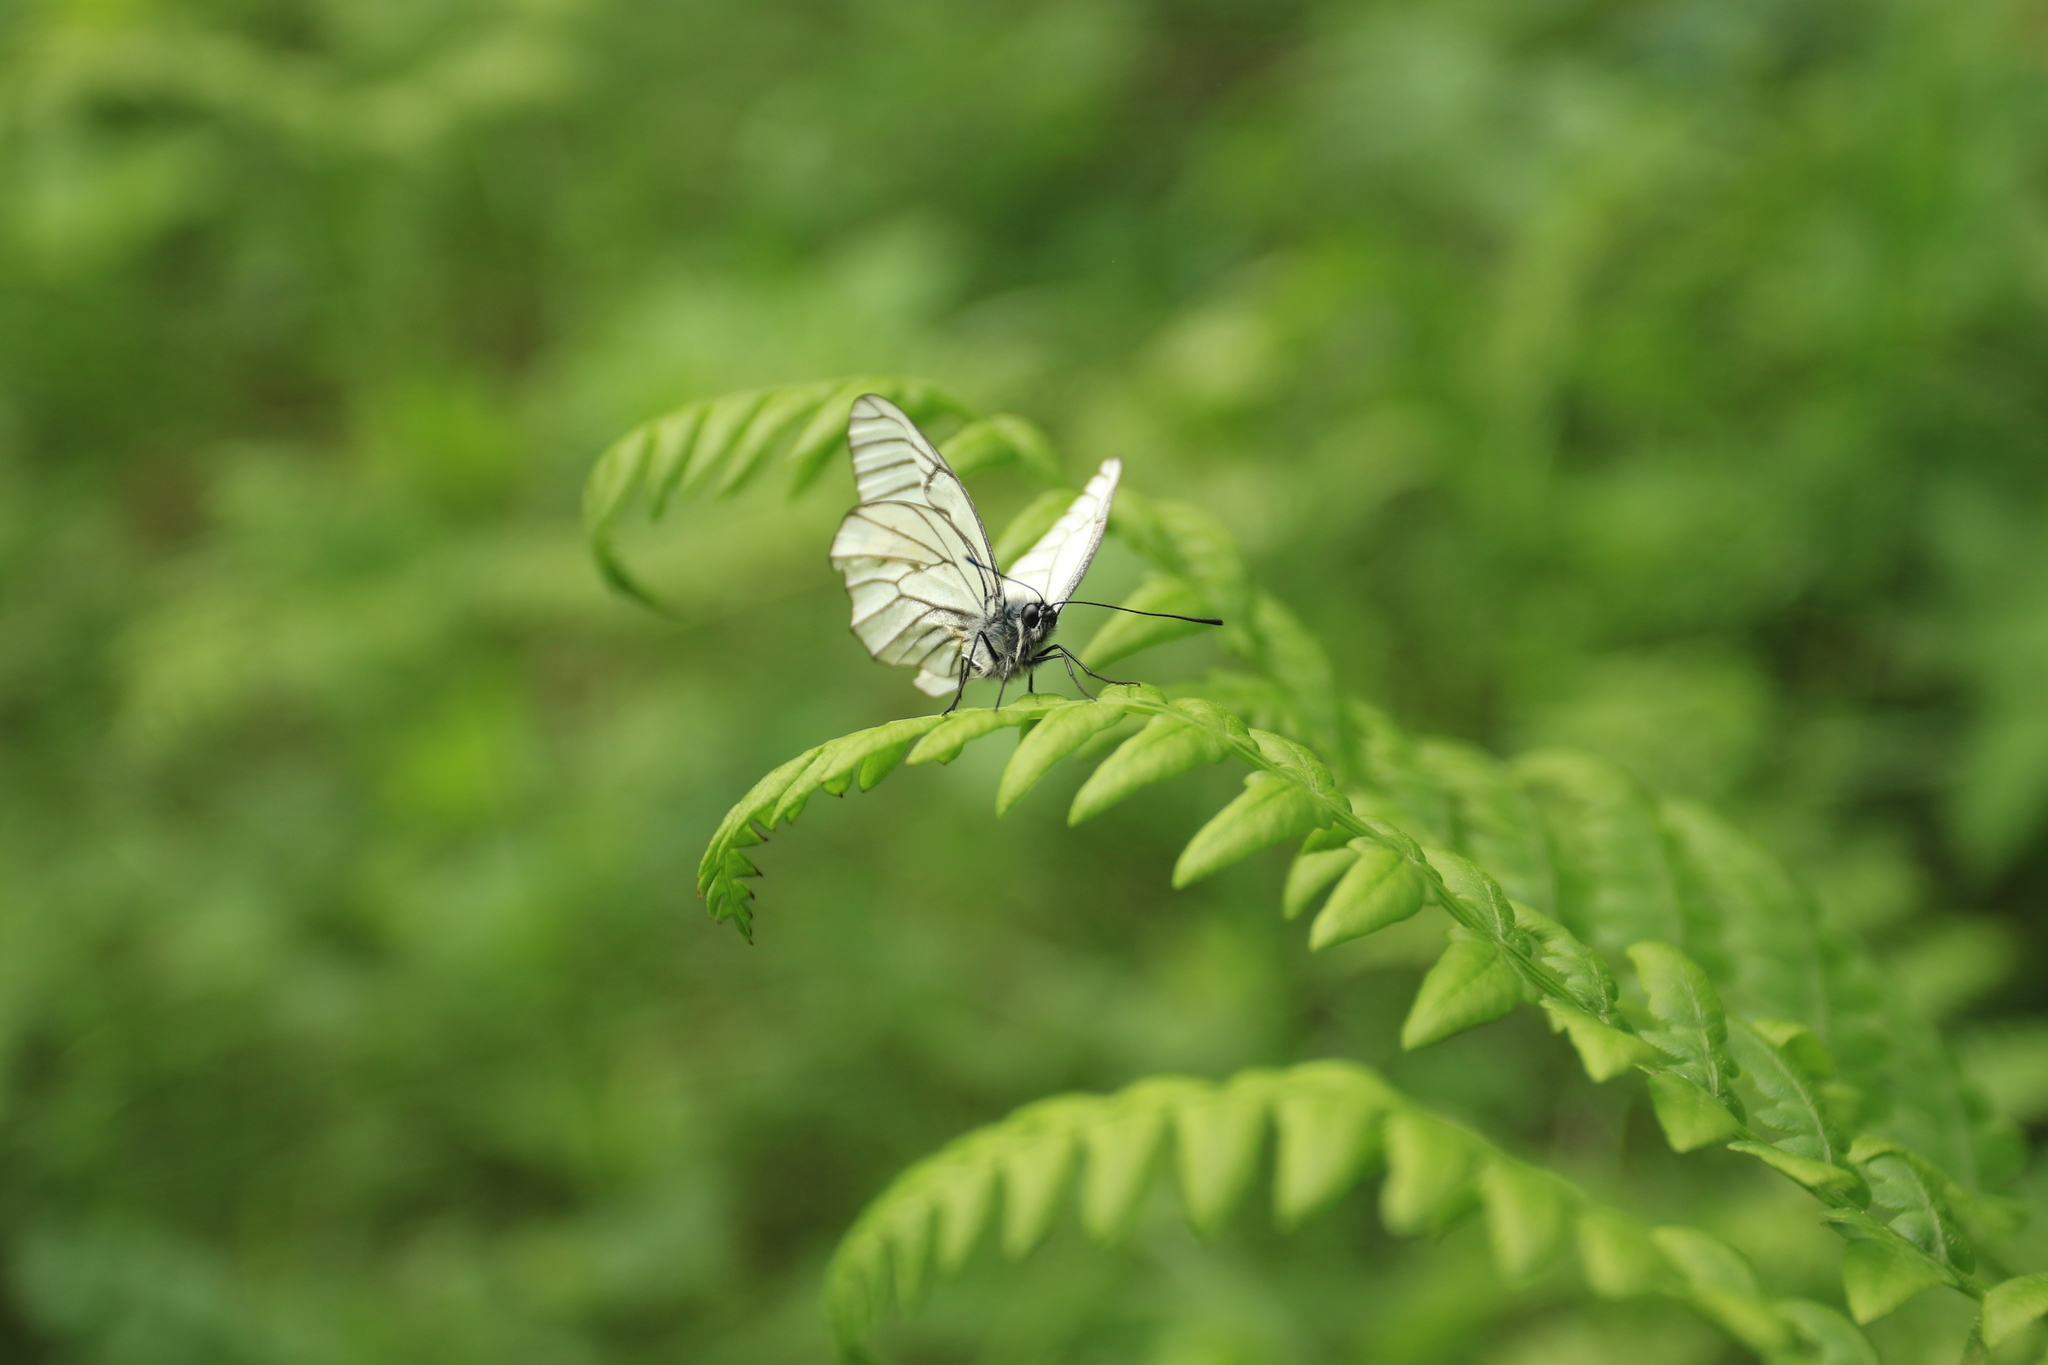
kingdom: Animalia
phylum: Arthropoda
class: Insecta
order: Lepidoptera
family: Pieridae
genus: Aporia
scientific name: Aporia crataegi
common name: Black-veined white
